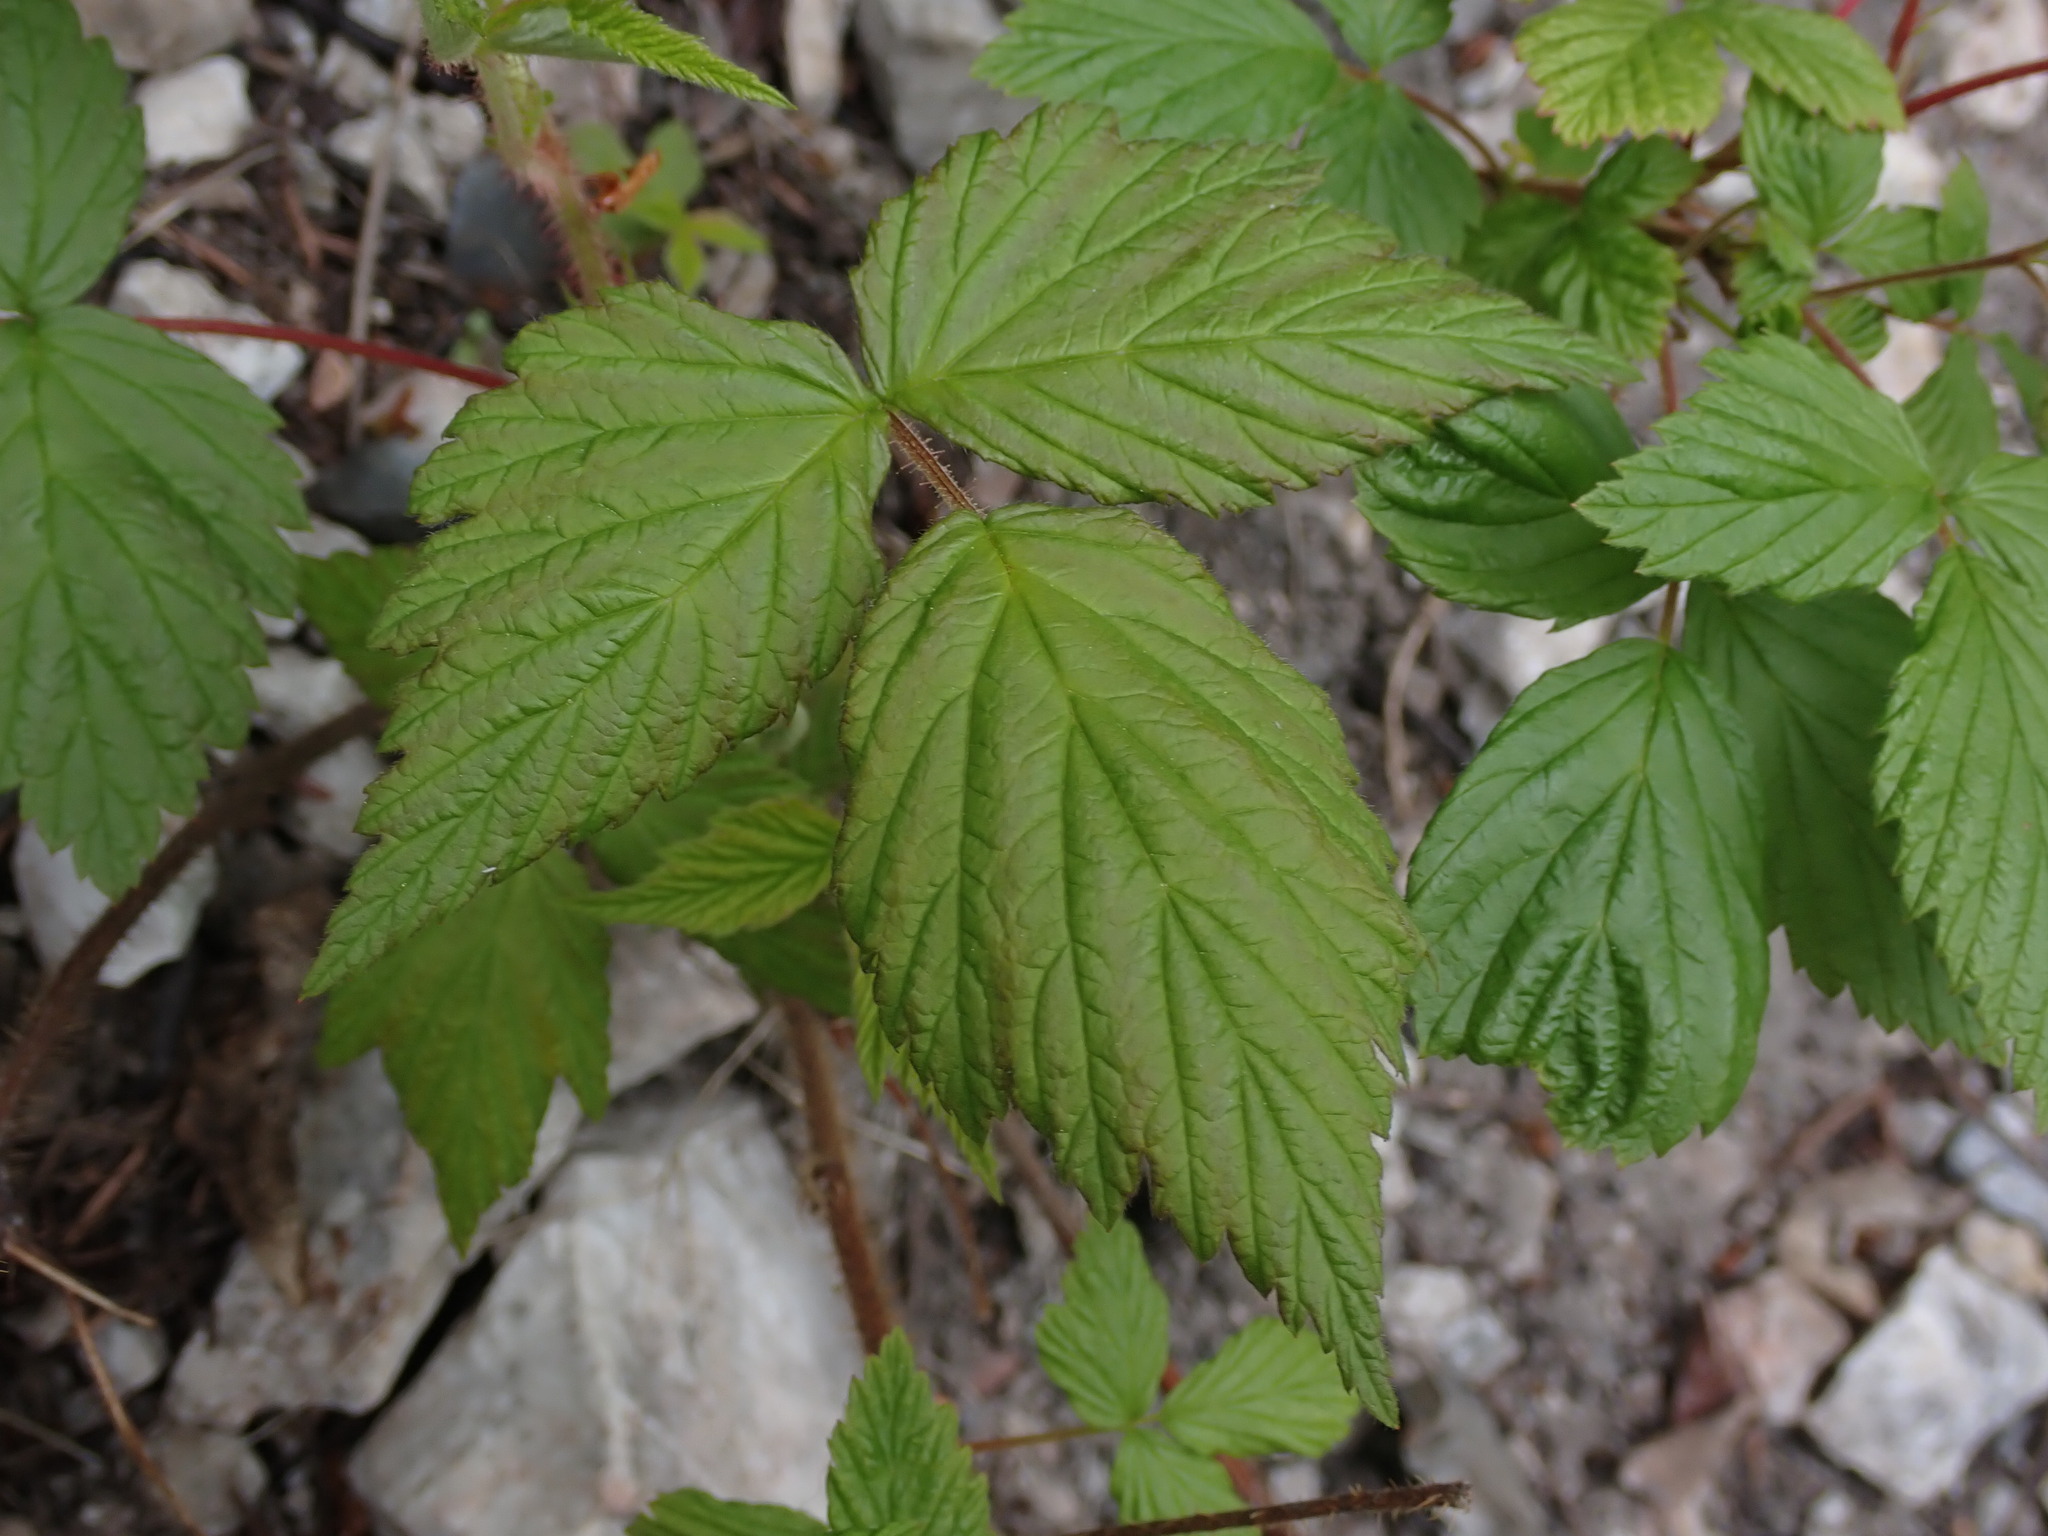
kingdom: Plantae
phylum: Tracheophyta
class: Magnoliopsida
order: Rosales
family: Rosaceae
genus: Rubus
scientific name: Rubus idaeus
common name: Raspberry
